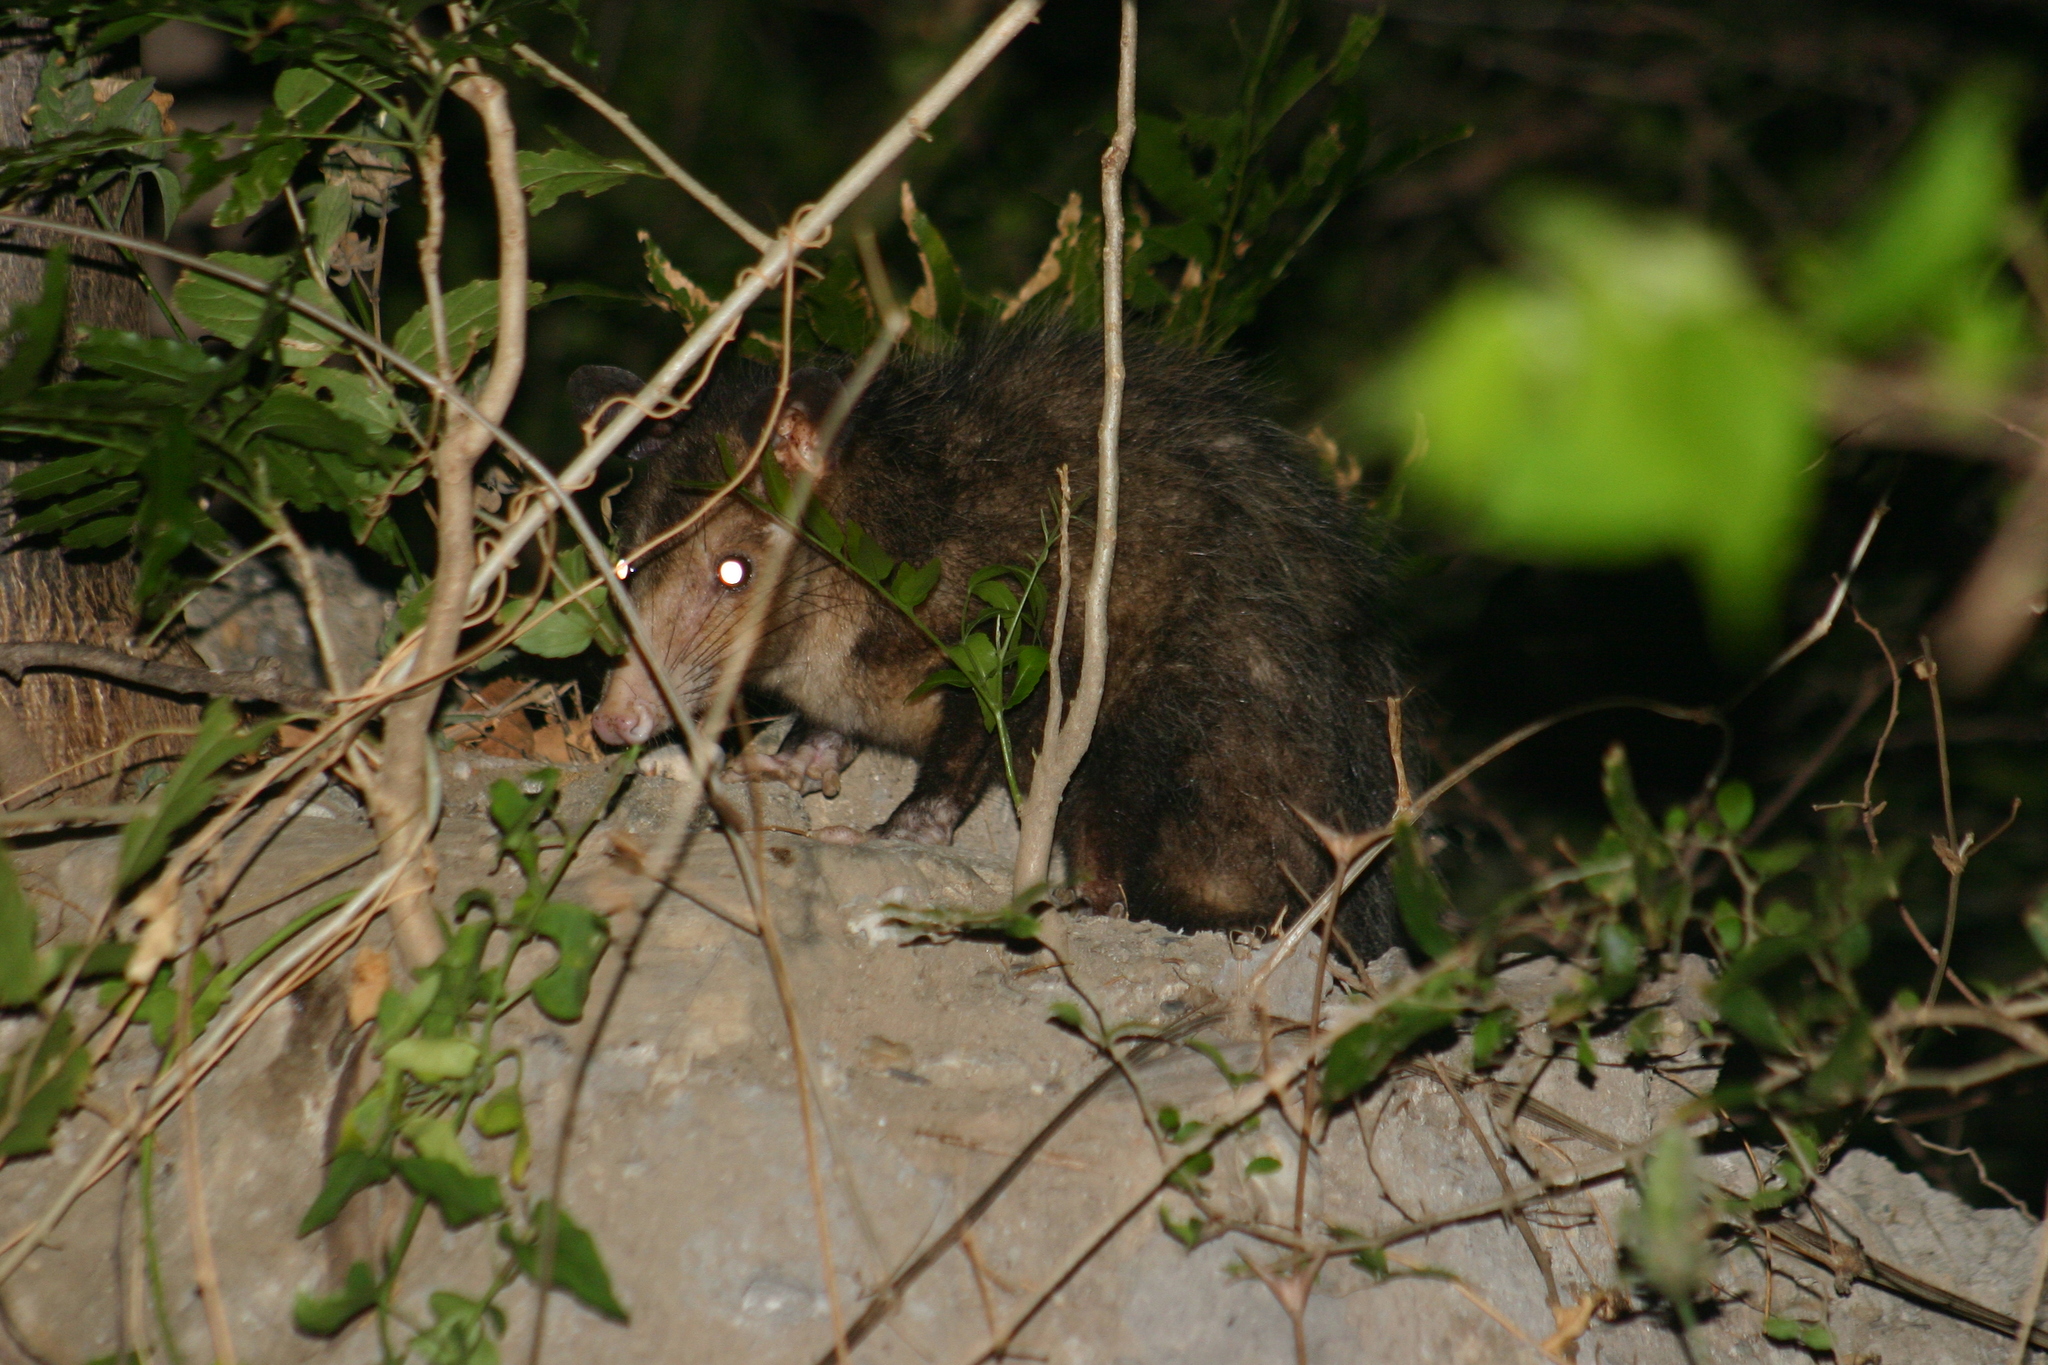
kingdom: Animalia
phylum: Chordata
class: Mammalia
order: Didelphimorphia
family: Didelphidae
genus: Didelphis
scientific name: Didelphis marsupialis
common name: Common opossum
